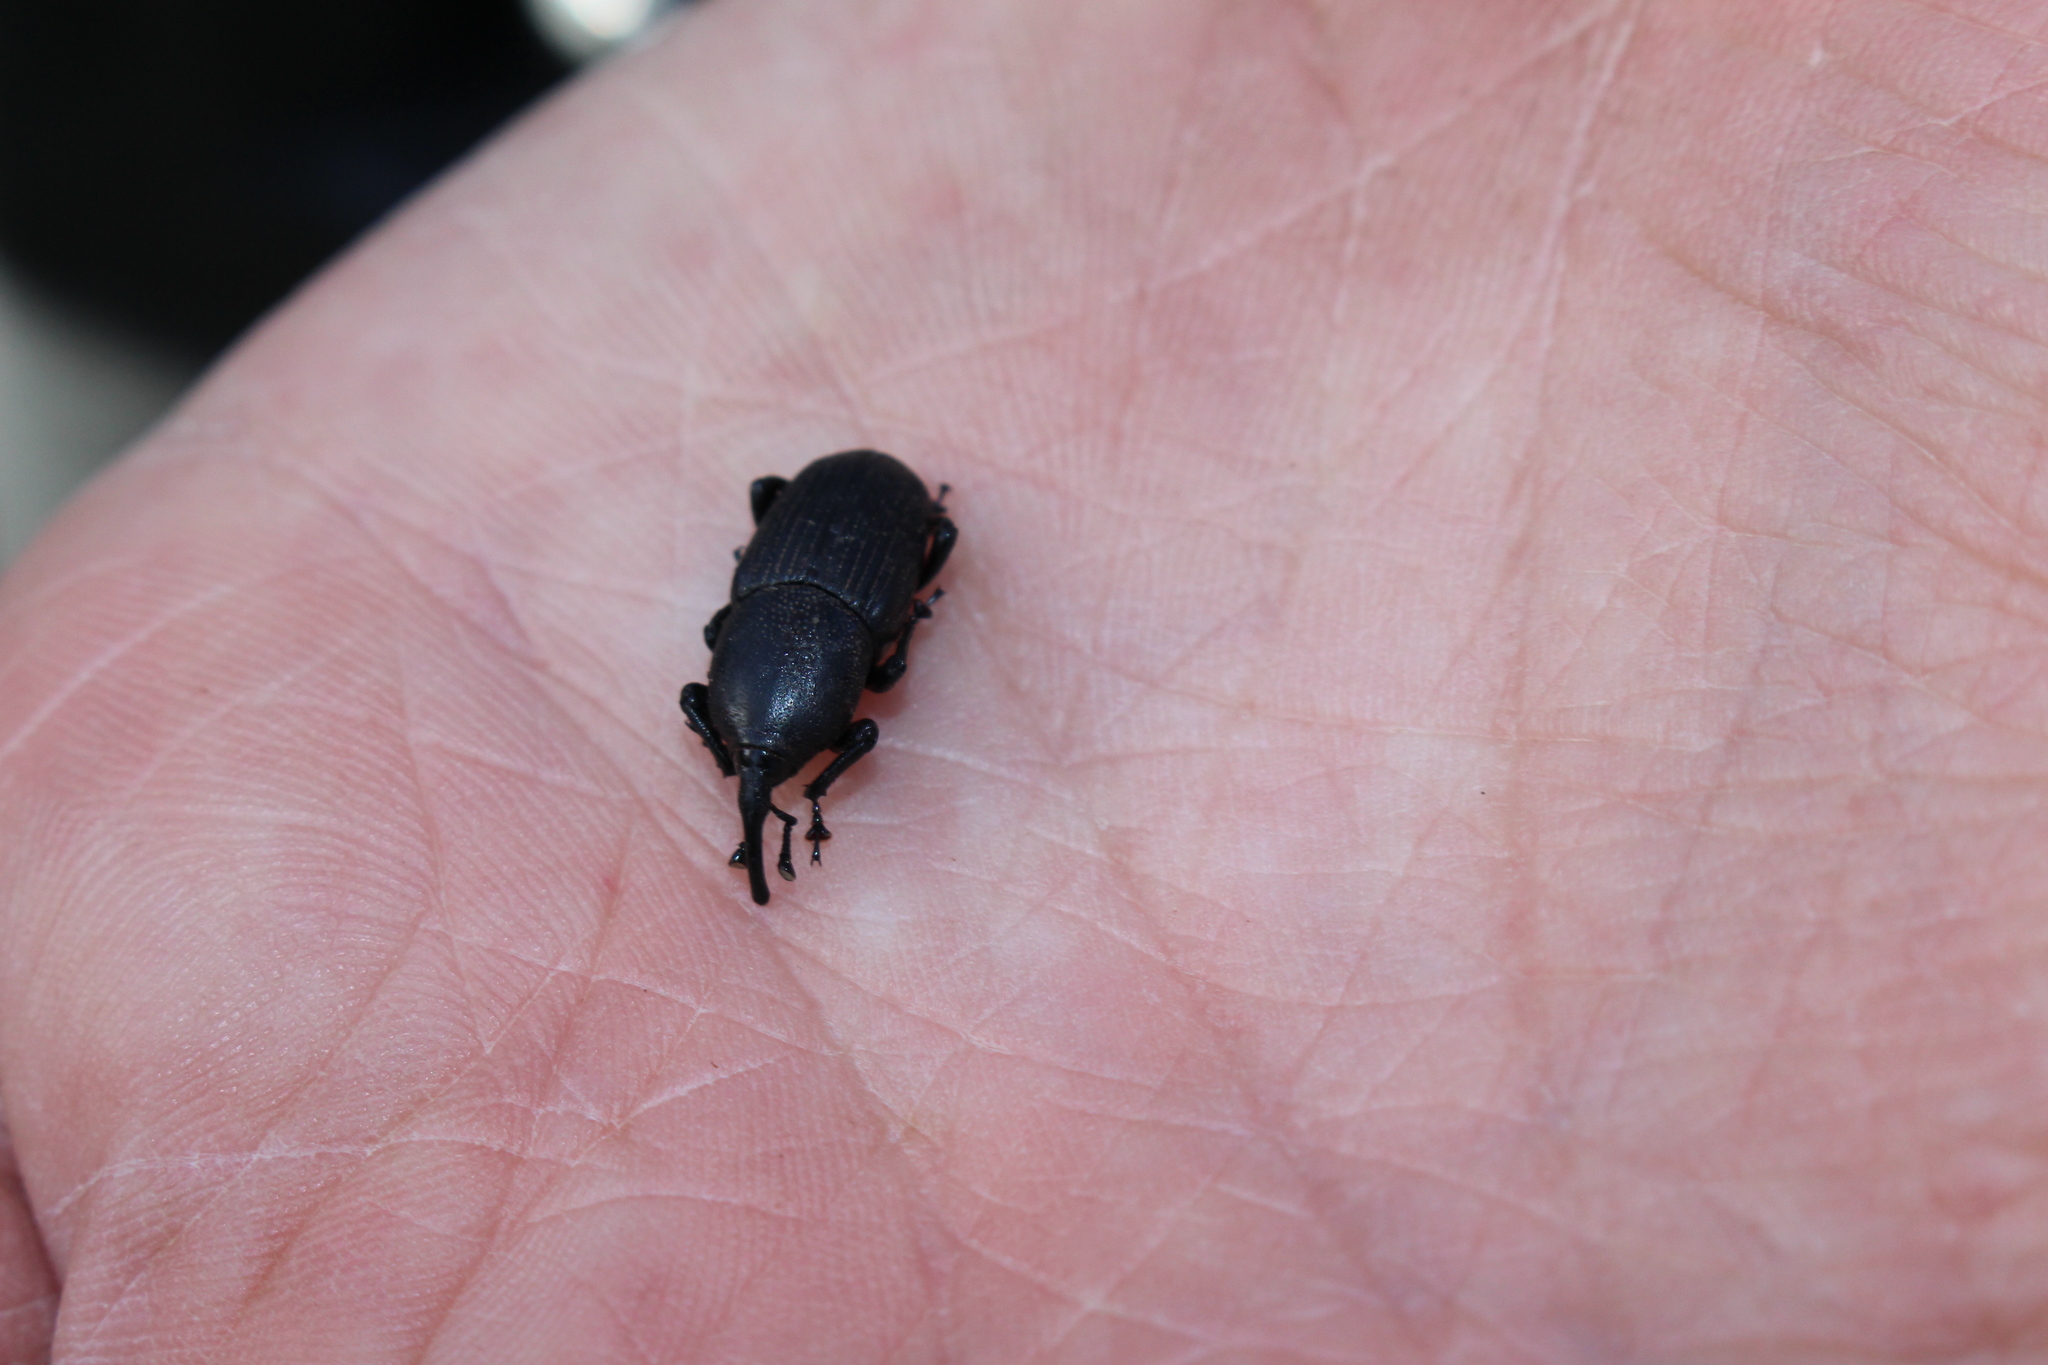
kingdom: Animalia
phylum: Arthropoda
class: Insecta
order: Coleoptera
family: Dryophthoridae
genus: Scyphophorus
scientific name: Scyphophorus acupunctatus
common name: Weevil
